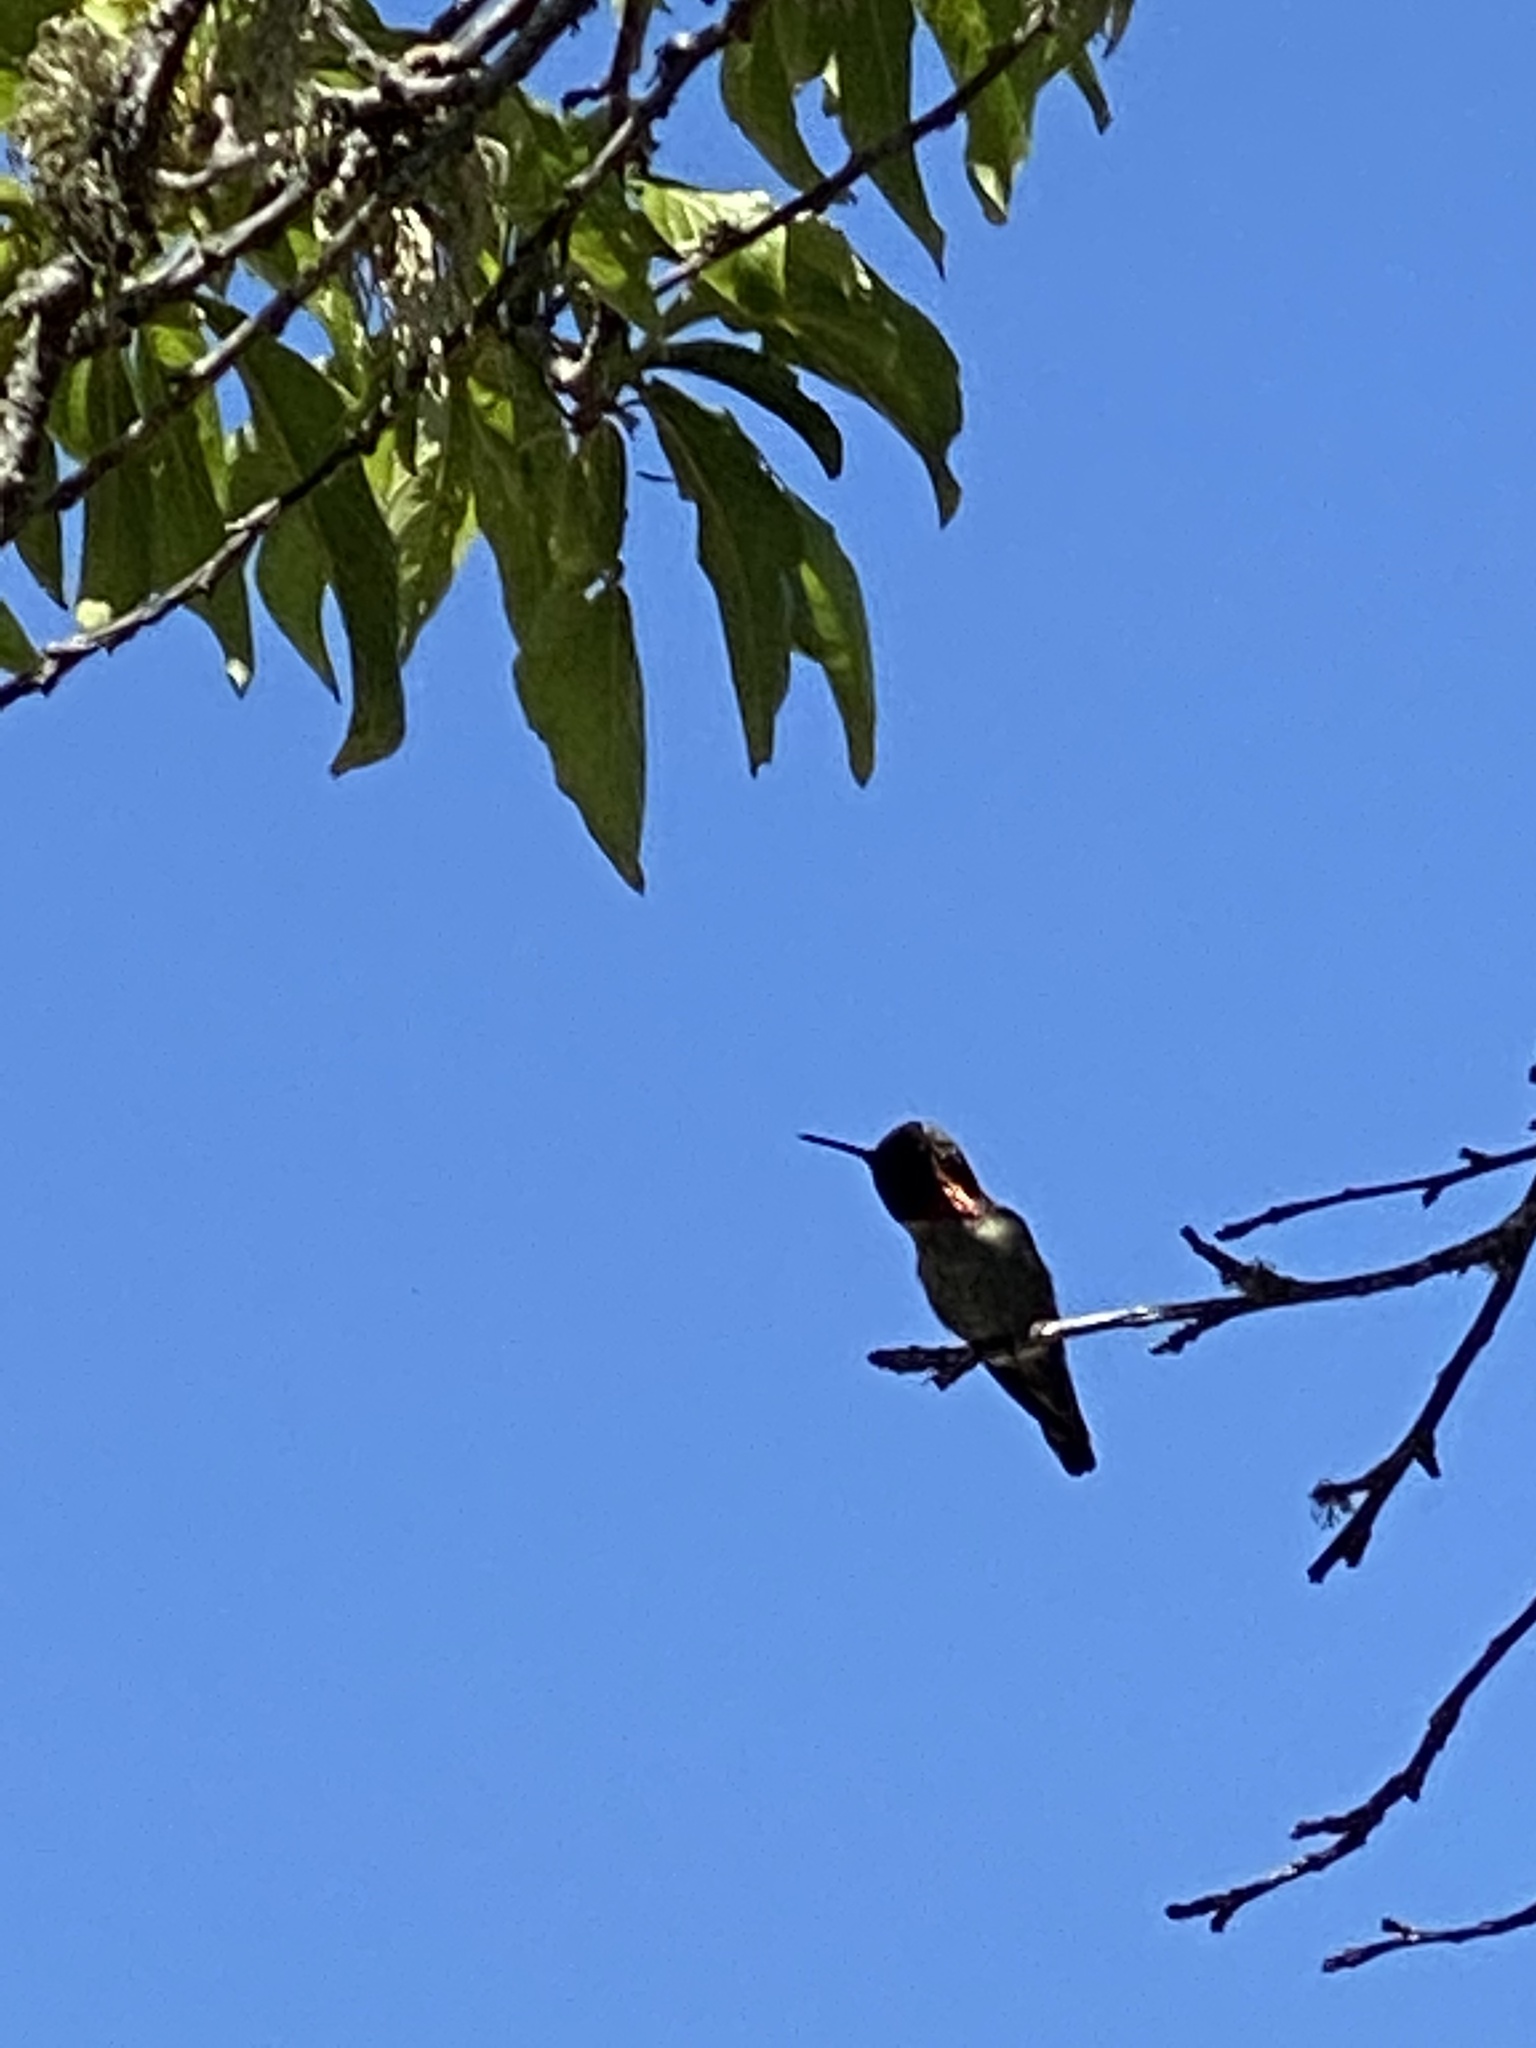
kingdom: Animalia
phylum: Chordata
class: Aves
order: Apodiformes
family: Trochilidae
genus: Calypte
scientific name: Calypte anna
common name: Anna's hummingbird
